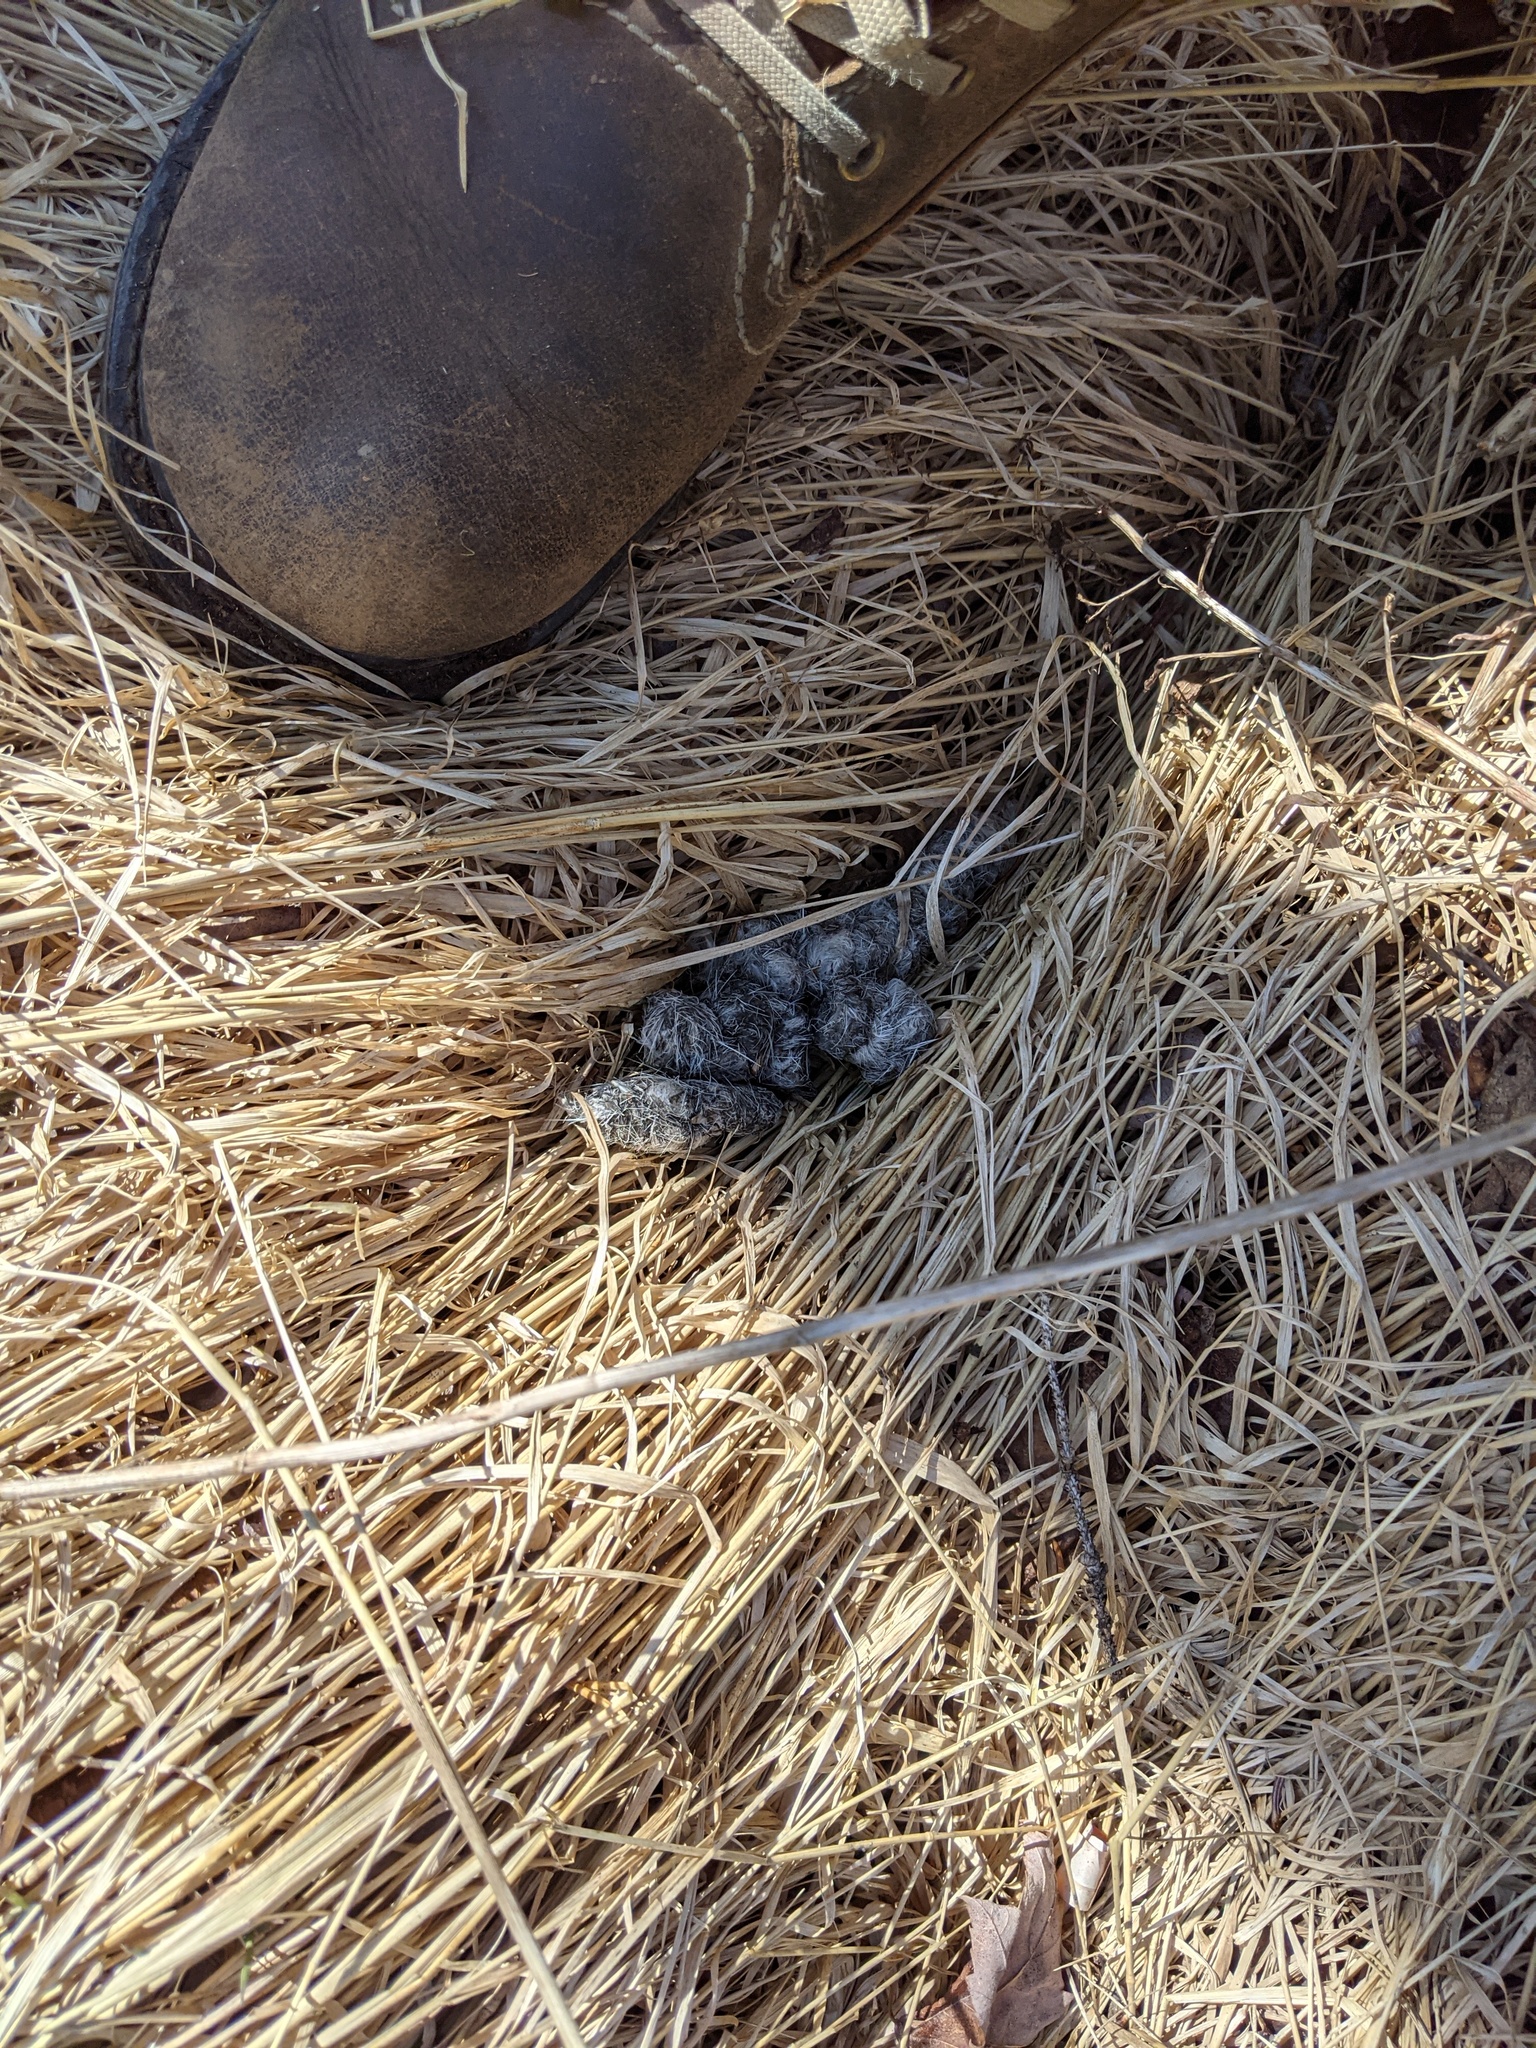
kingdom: Animalia
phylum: Chordata
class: Mammalia
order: Carnivora
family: Canidae
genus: Canis
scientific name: Canis latrans
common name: Coyote
